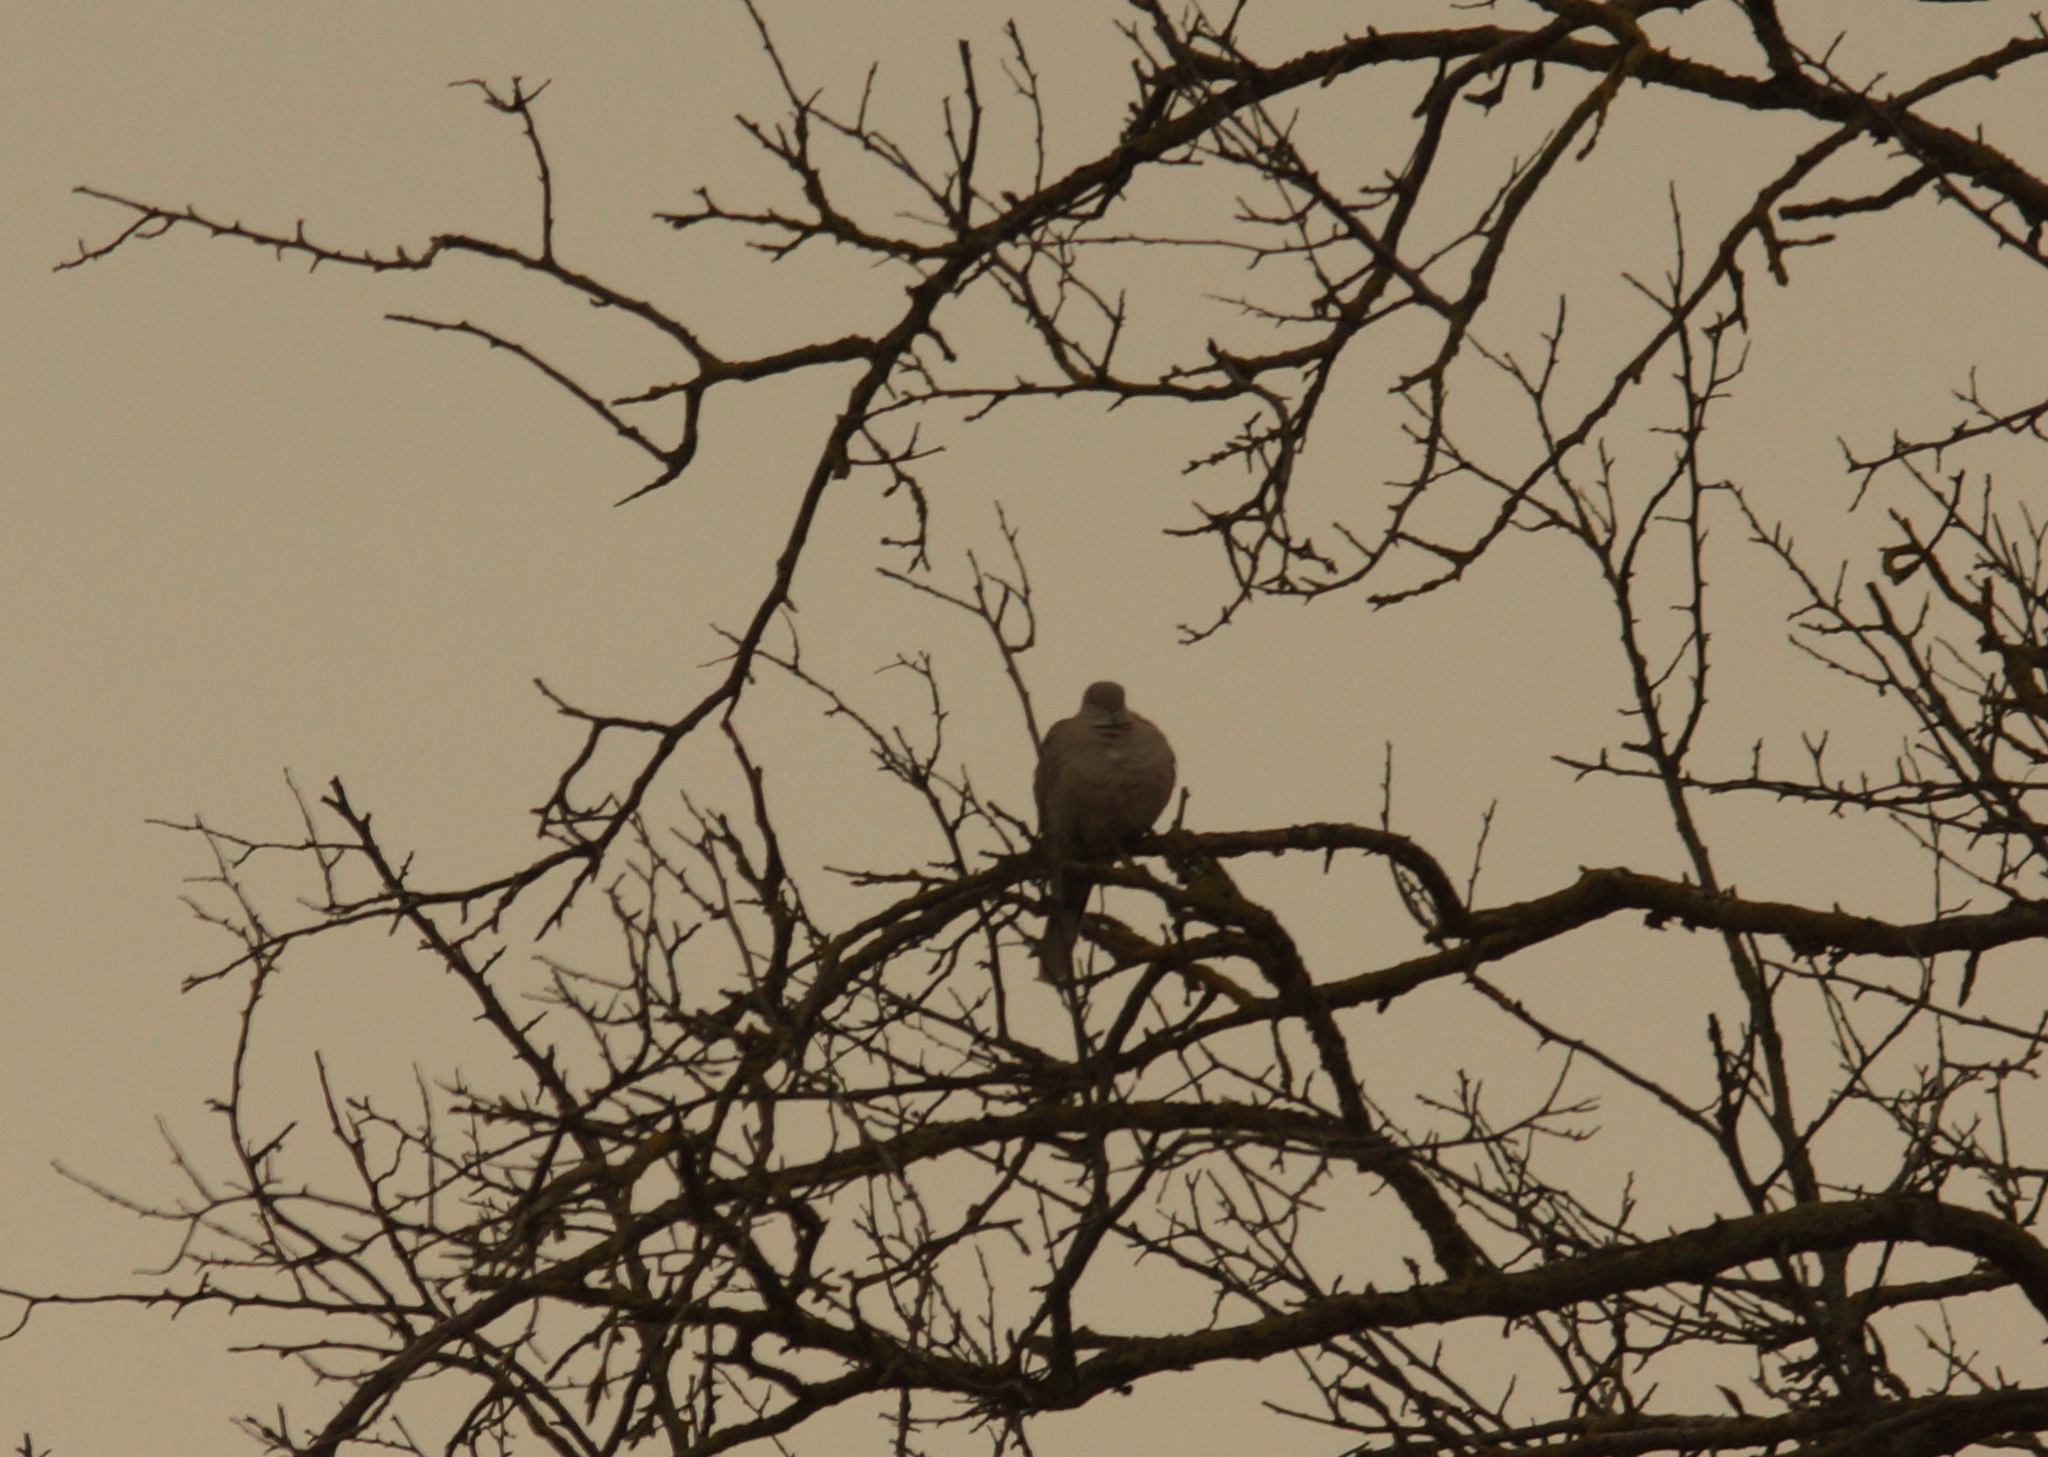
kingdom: Animalia
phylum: Chordata
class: Aves
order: Columbiformes
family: Columbidae
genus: Streptopelia
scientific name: Streptopelia decaocto
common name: Eurasian collared dove
